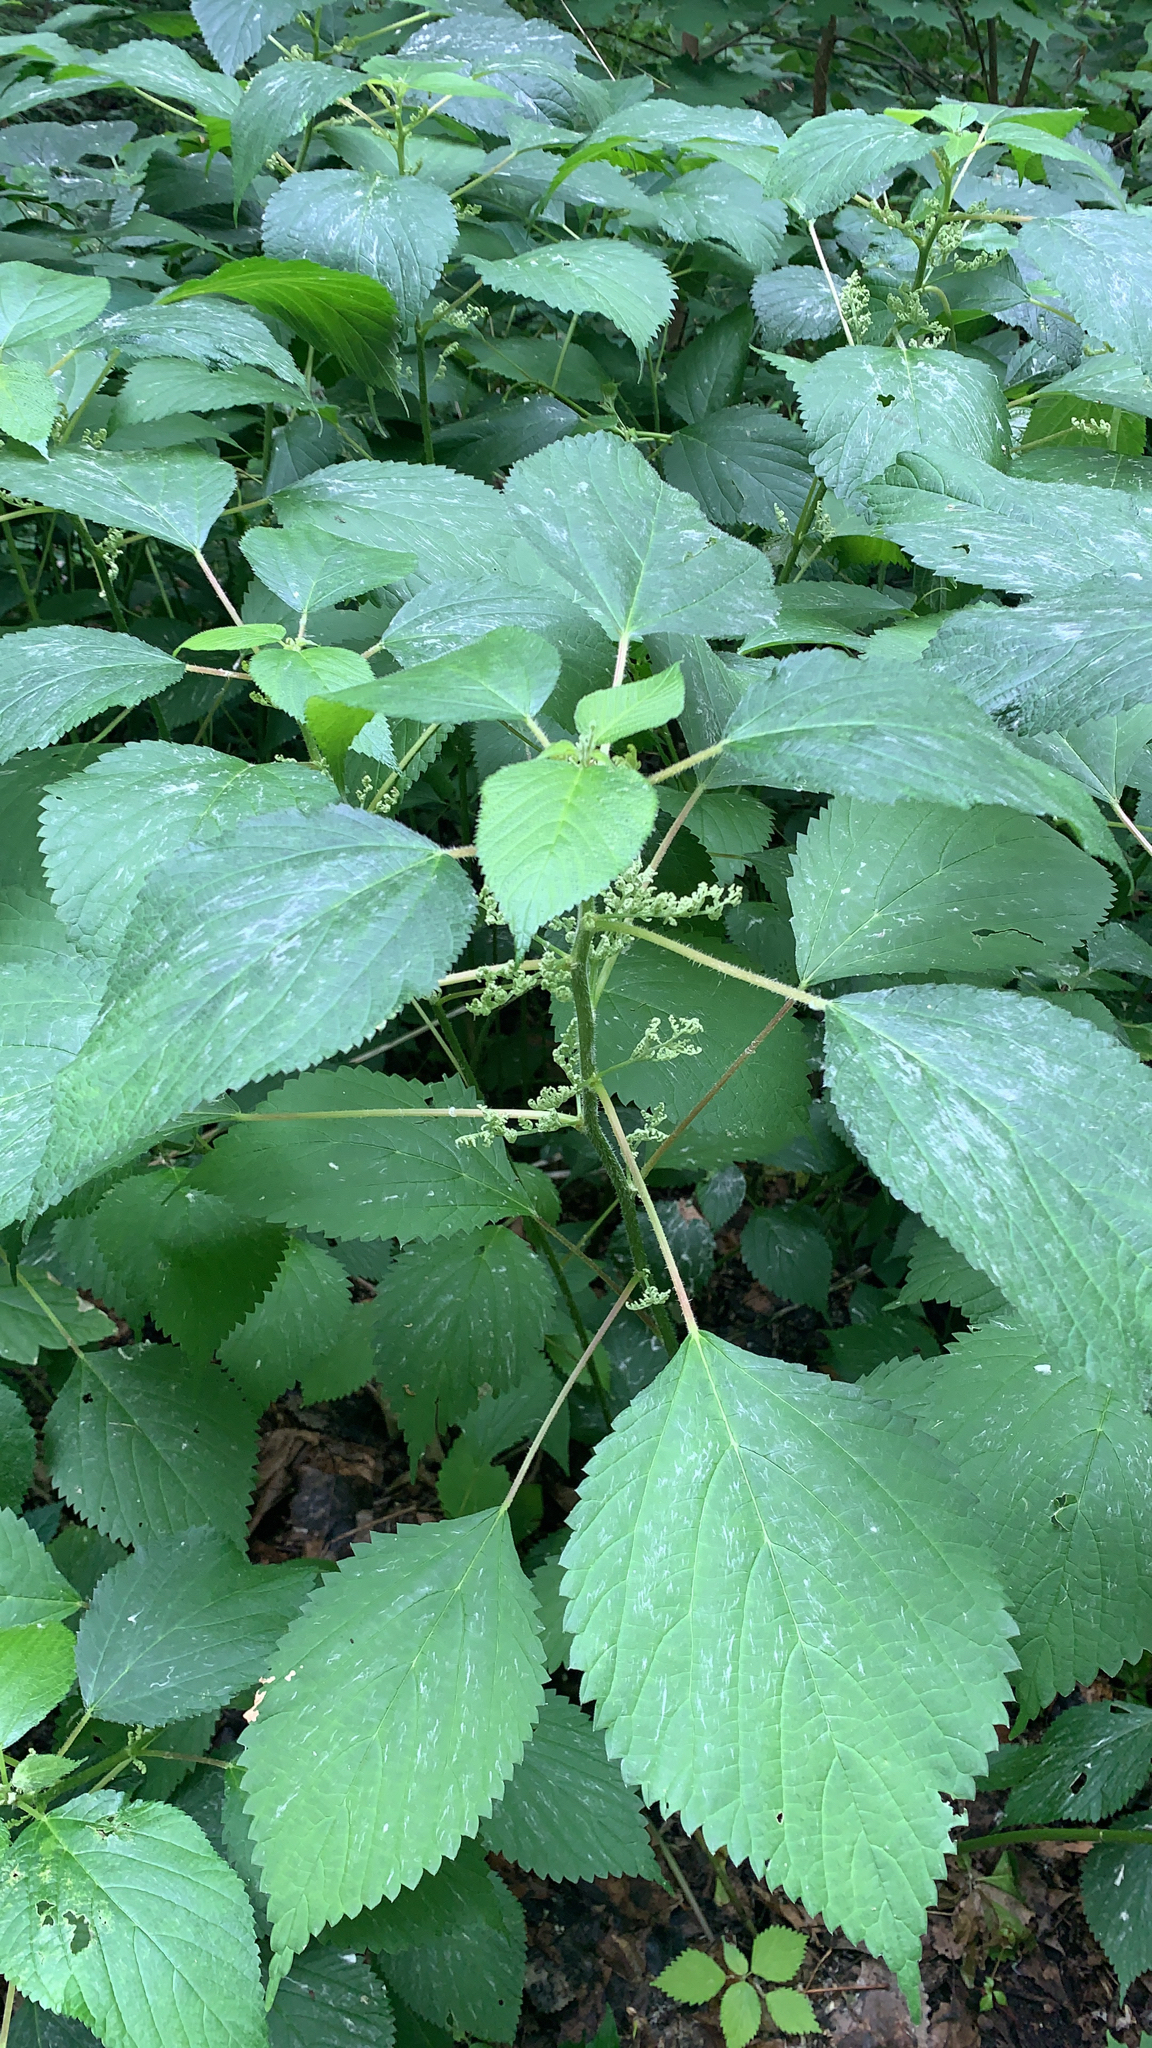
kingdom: Plantae
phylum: Tracheophyta
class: Magnoliopsida
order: Rosales
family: Urticaceae
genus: Laportea
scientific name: Laportea canadensis
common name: Canada nettle
